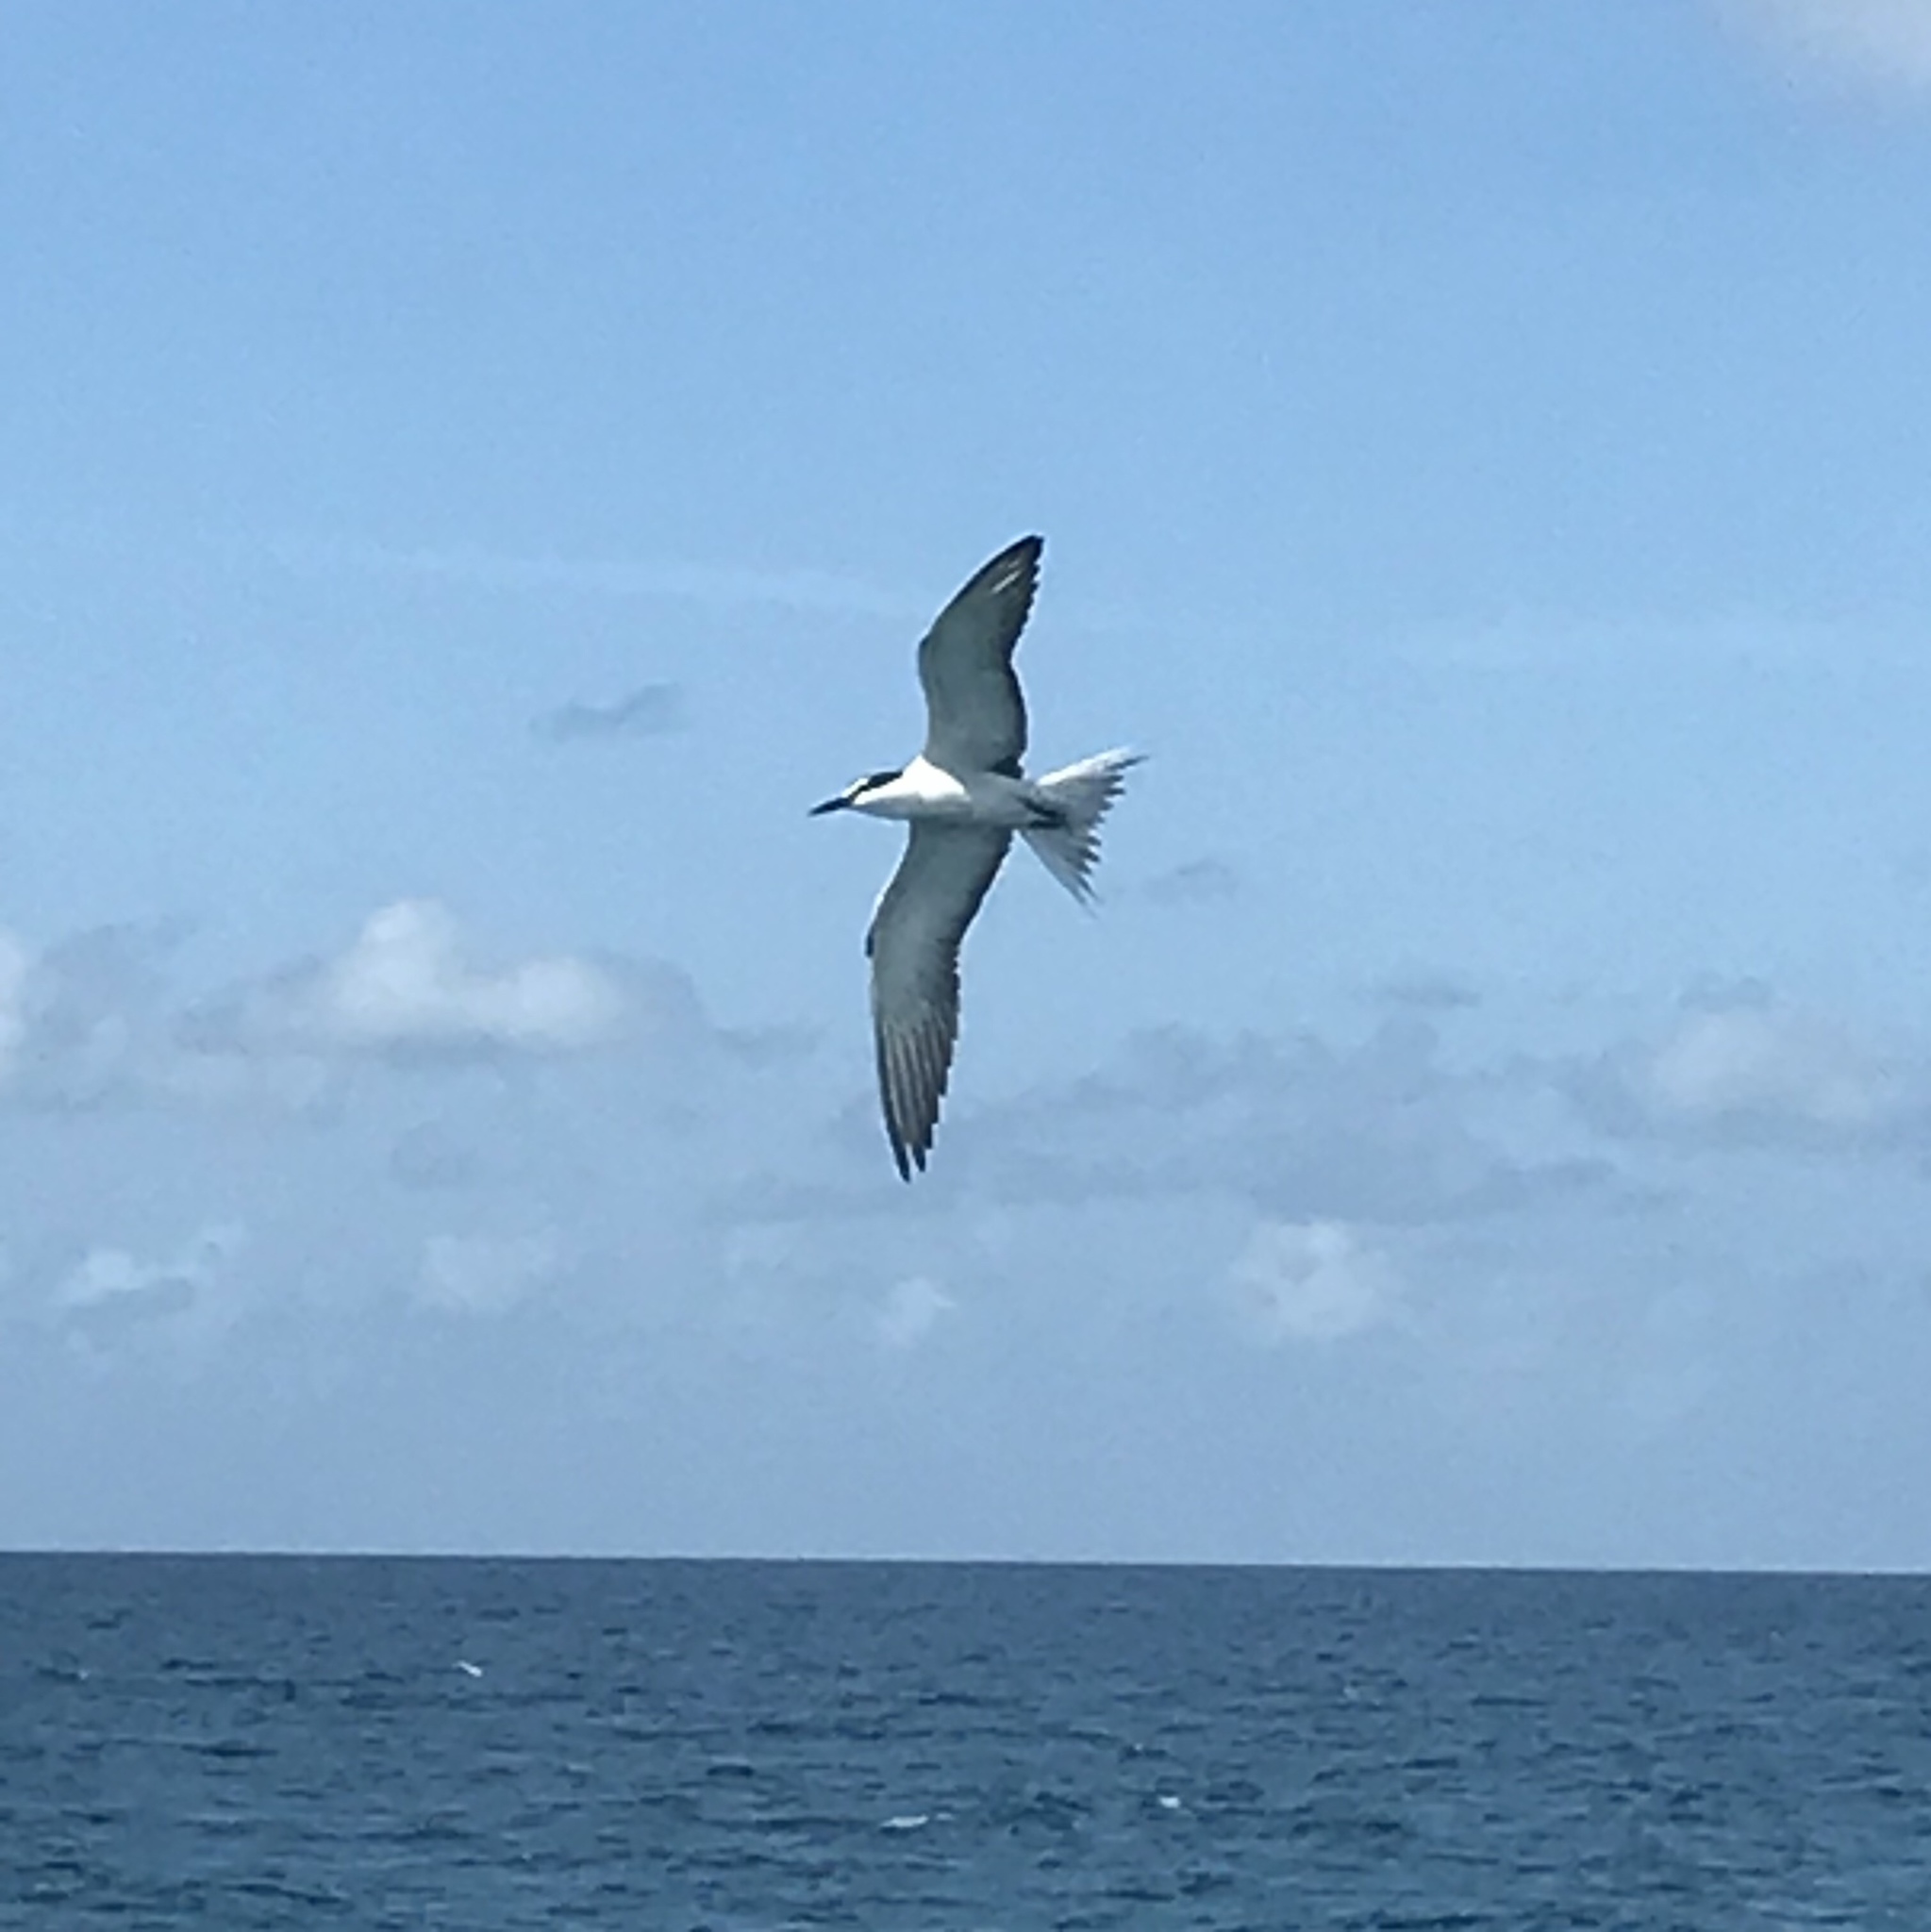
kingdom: Animalia
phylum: Chordata
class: Aves
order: Charadriiformes
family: Laridae
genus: Onychoprion
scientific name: Onychoprion anaethetus
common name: Bridled tern
